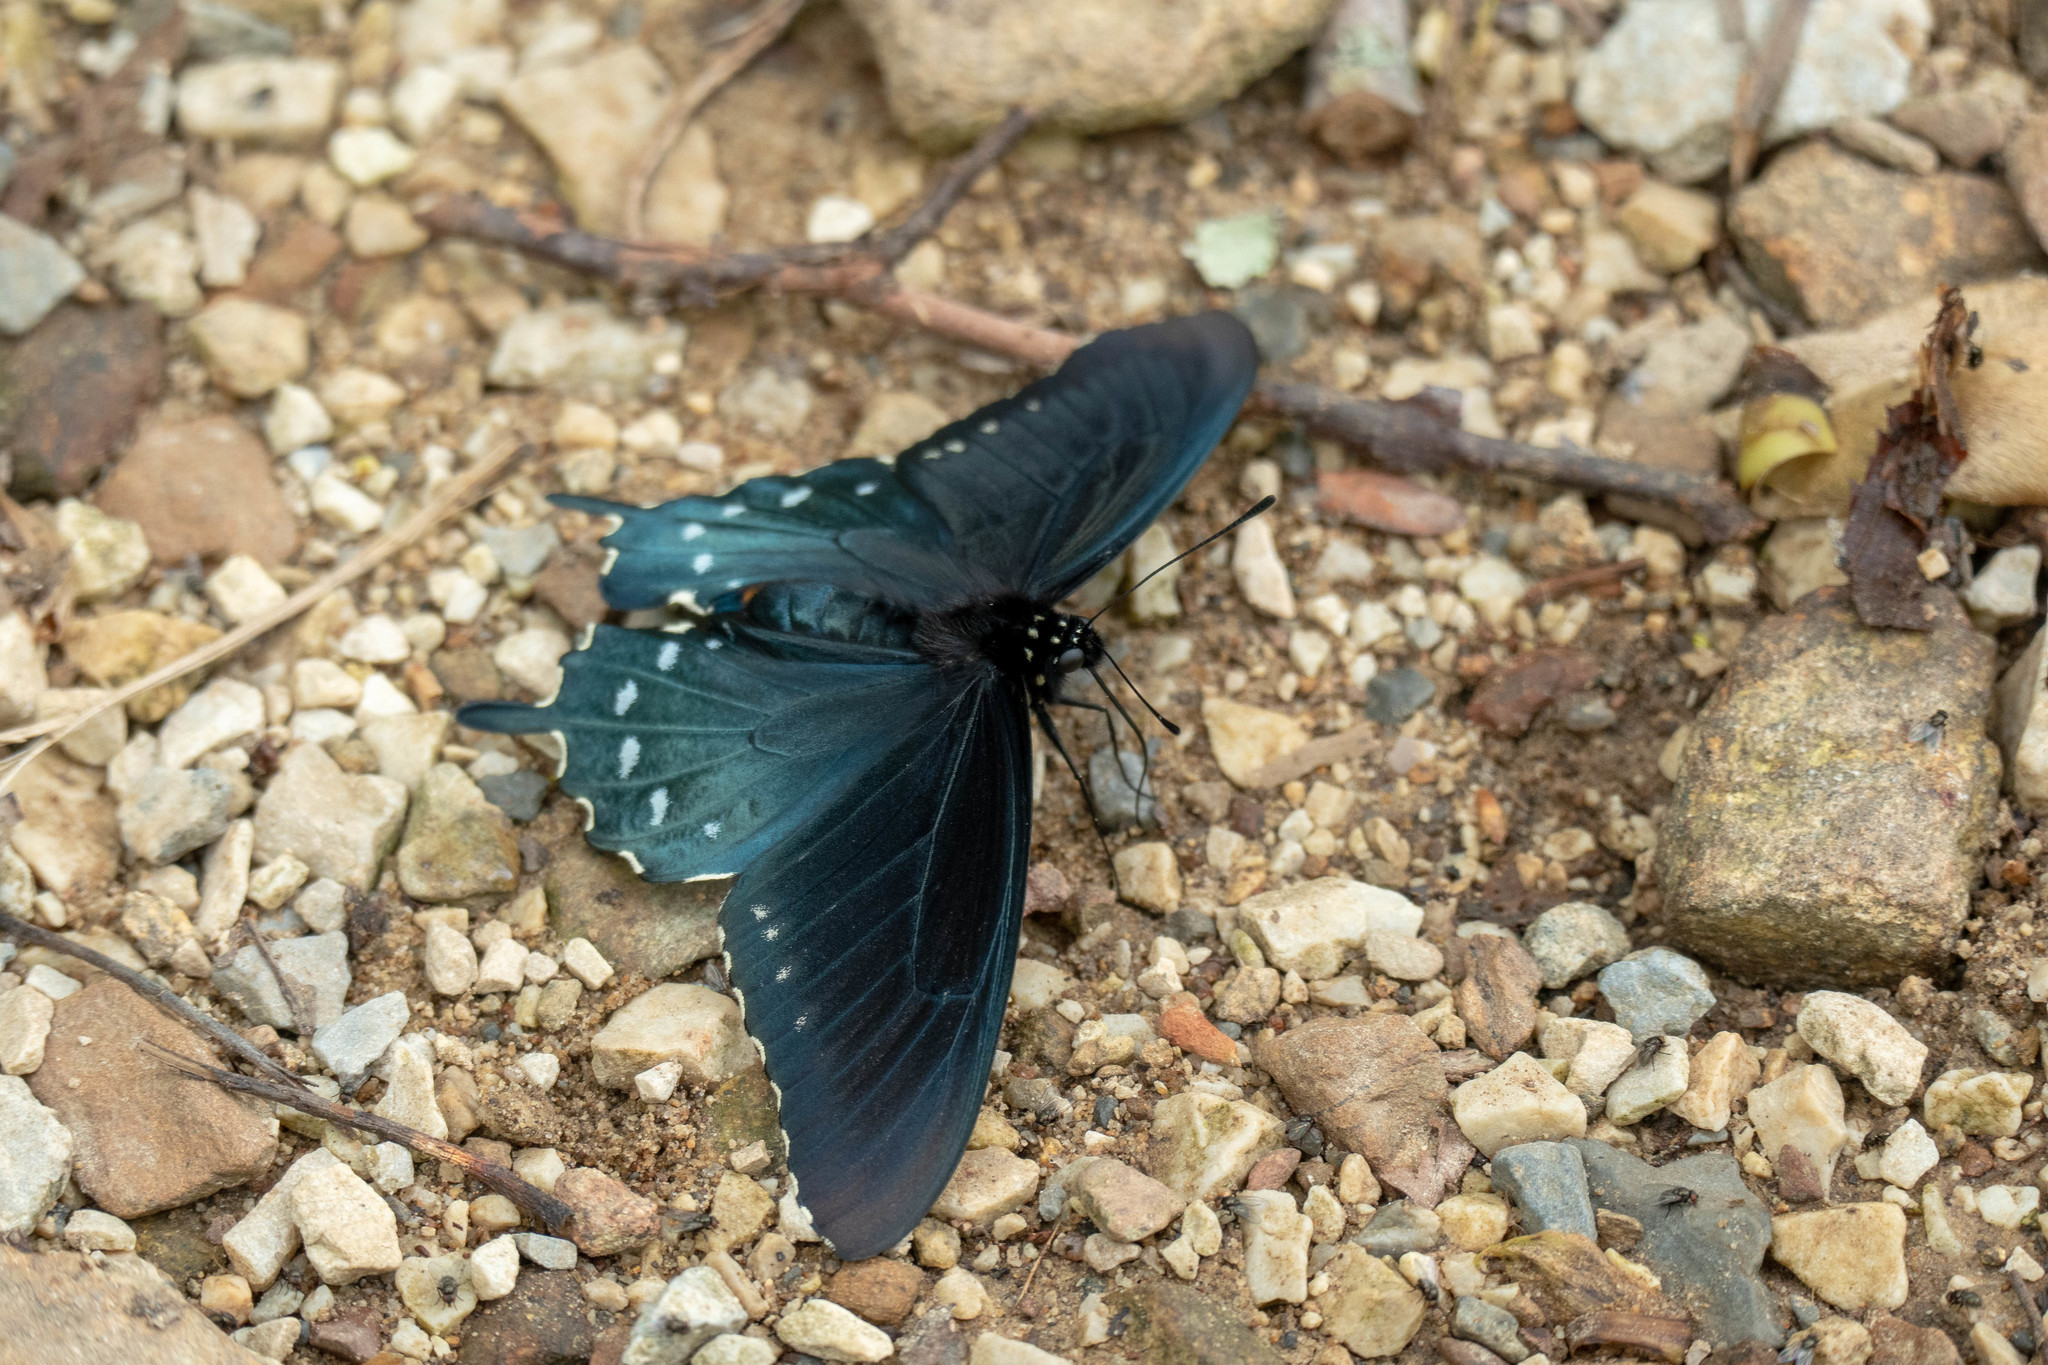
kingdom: Animalia
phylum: Arthropoda
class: Insecta
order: Lepidoptera
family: Papilionidae
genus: Battus
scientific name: Battus philenor
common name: Pipevine swallowtail
